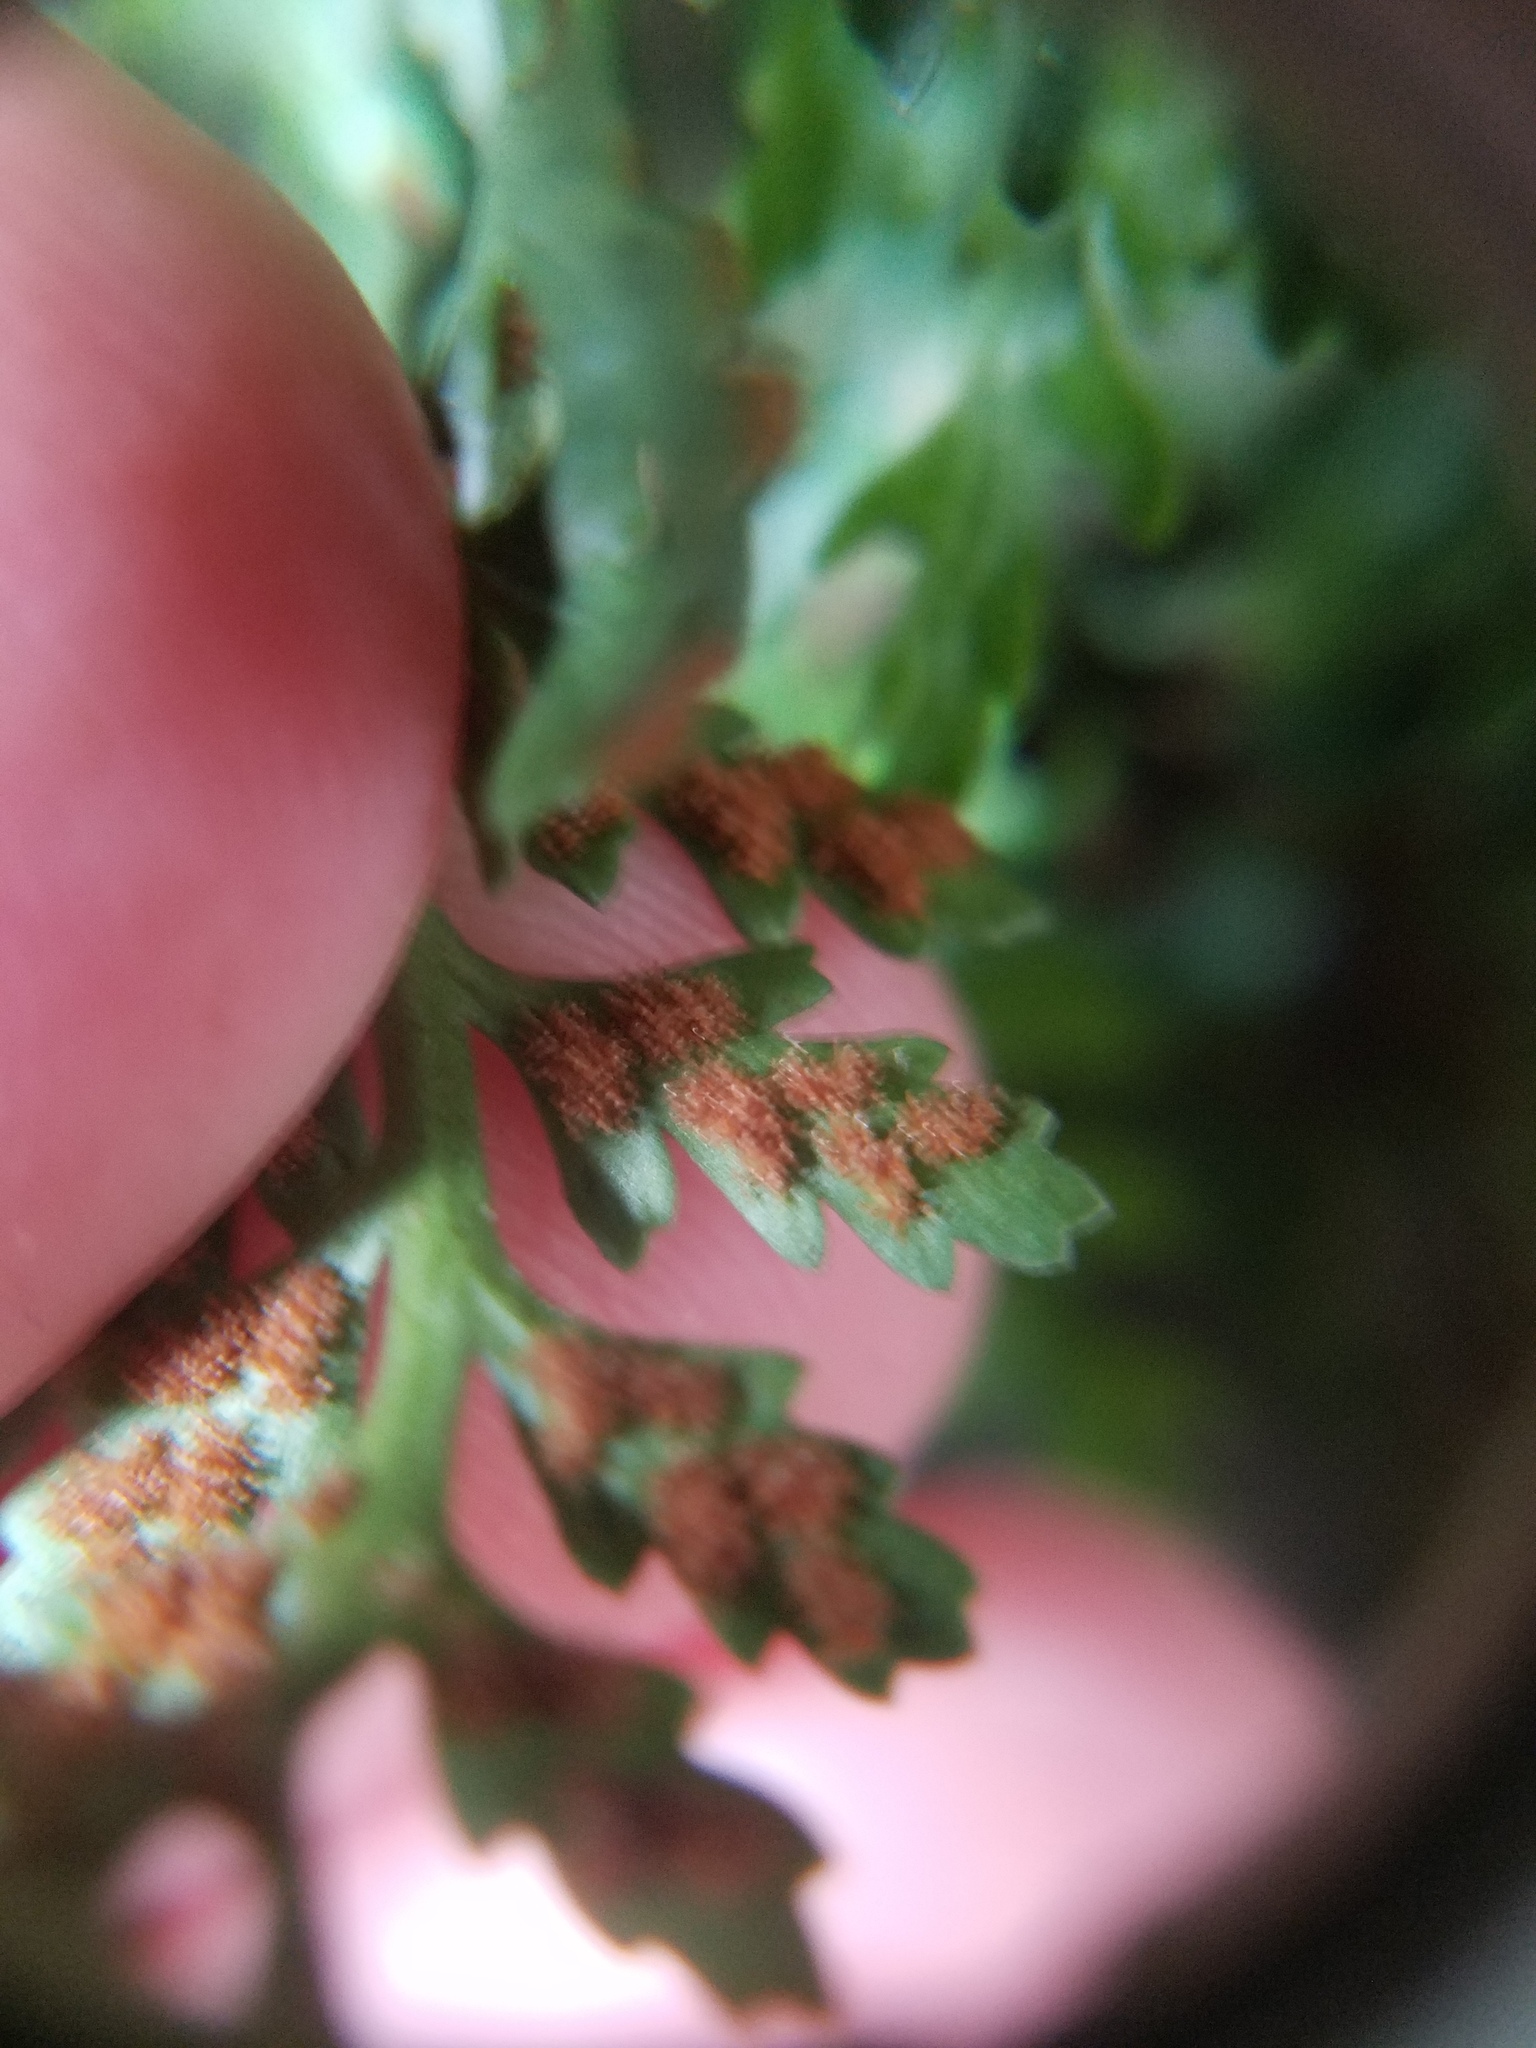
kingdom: Plantae
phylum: Tracheophyta
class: Polypodiopsida
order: Polypodiales
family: Aspleniaceae
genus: Asplenium
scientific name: Asplenium montanum
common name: Mountain spleenwort
